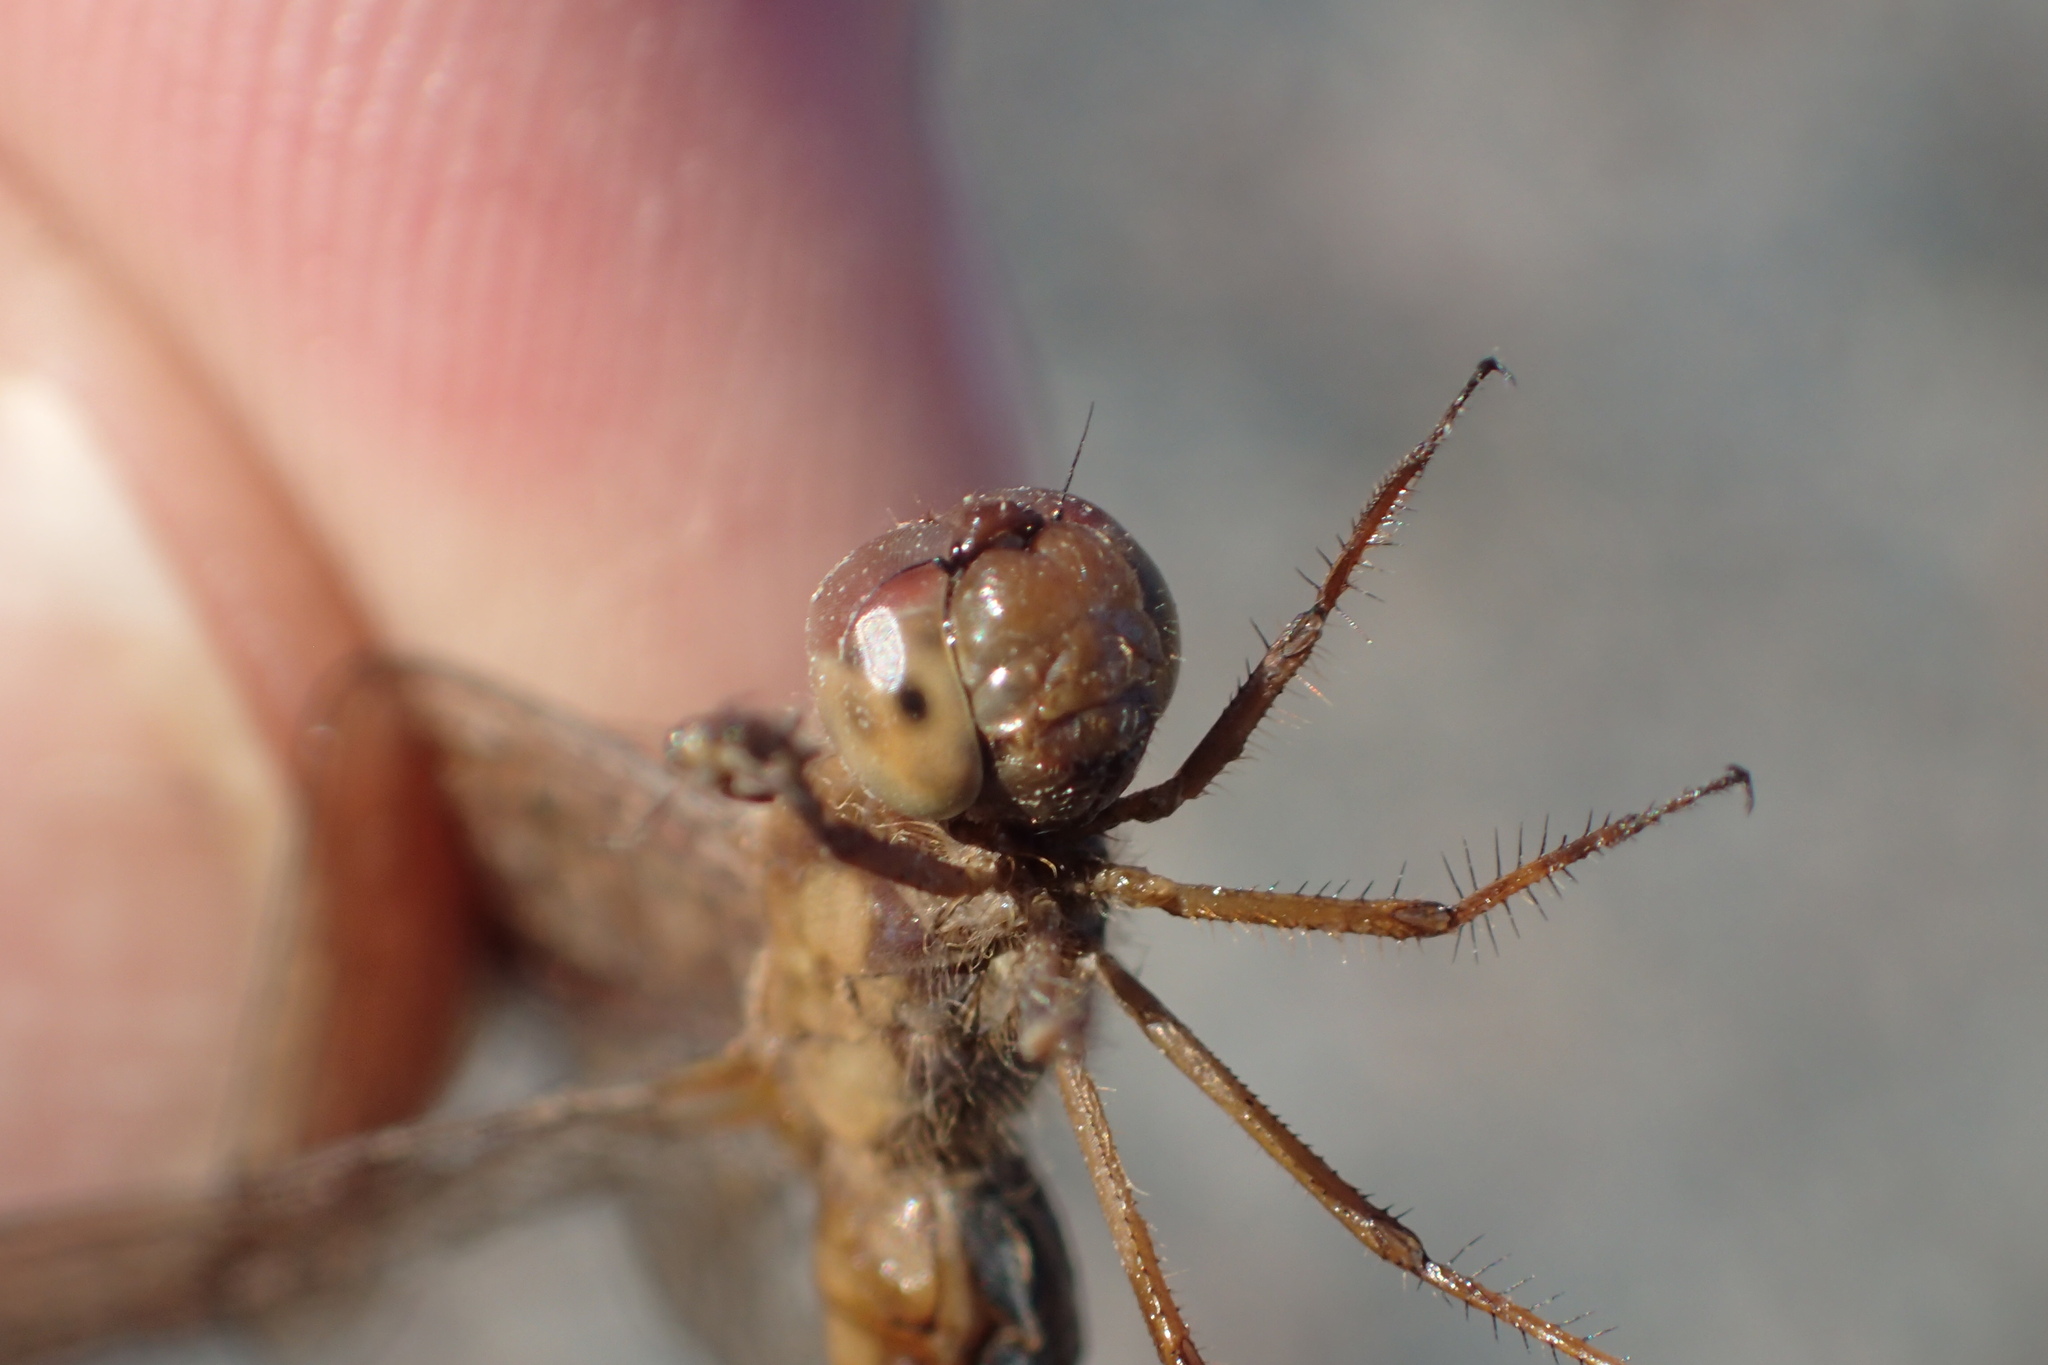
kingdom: Animalia
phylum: Arthropoda
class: Insecta
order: Odonata
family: Libellulidae
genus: Sympetrum
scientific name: Sympetrum vicinum
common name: Autumn meadowhawk
